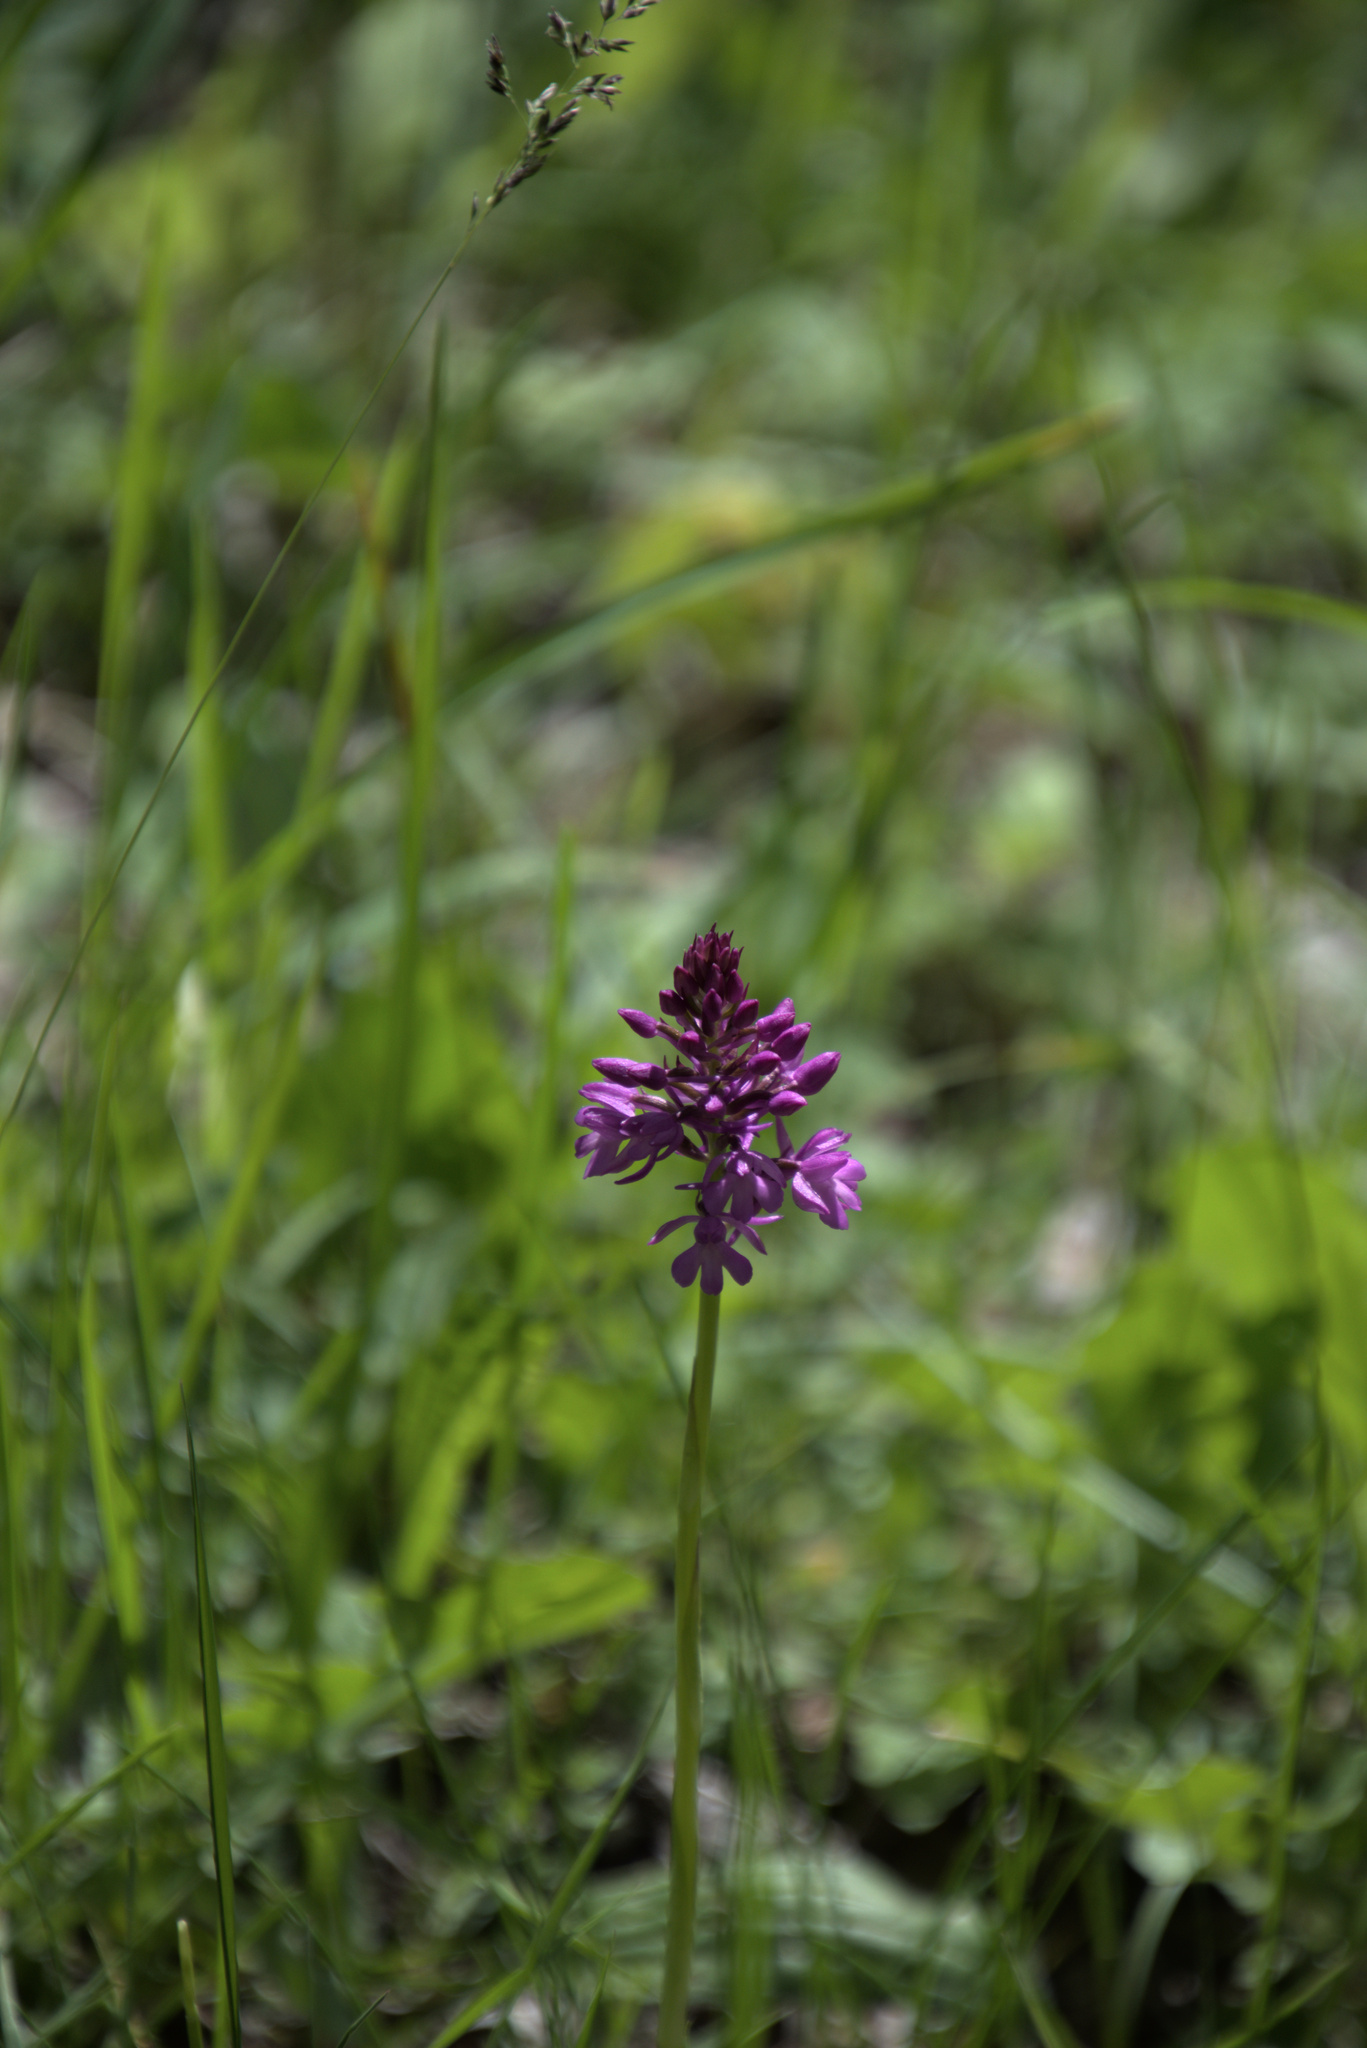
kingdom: Plantae
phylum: Tracheophyta
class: Liliopsida
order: Asparagales
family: Orchidaceae
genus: Anacamptis
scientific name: Anacamptis pyramidalis
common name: Pyramidal orchid
